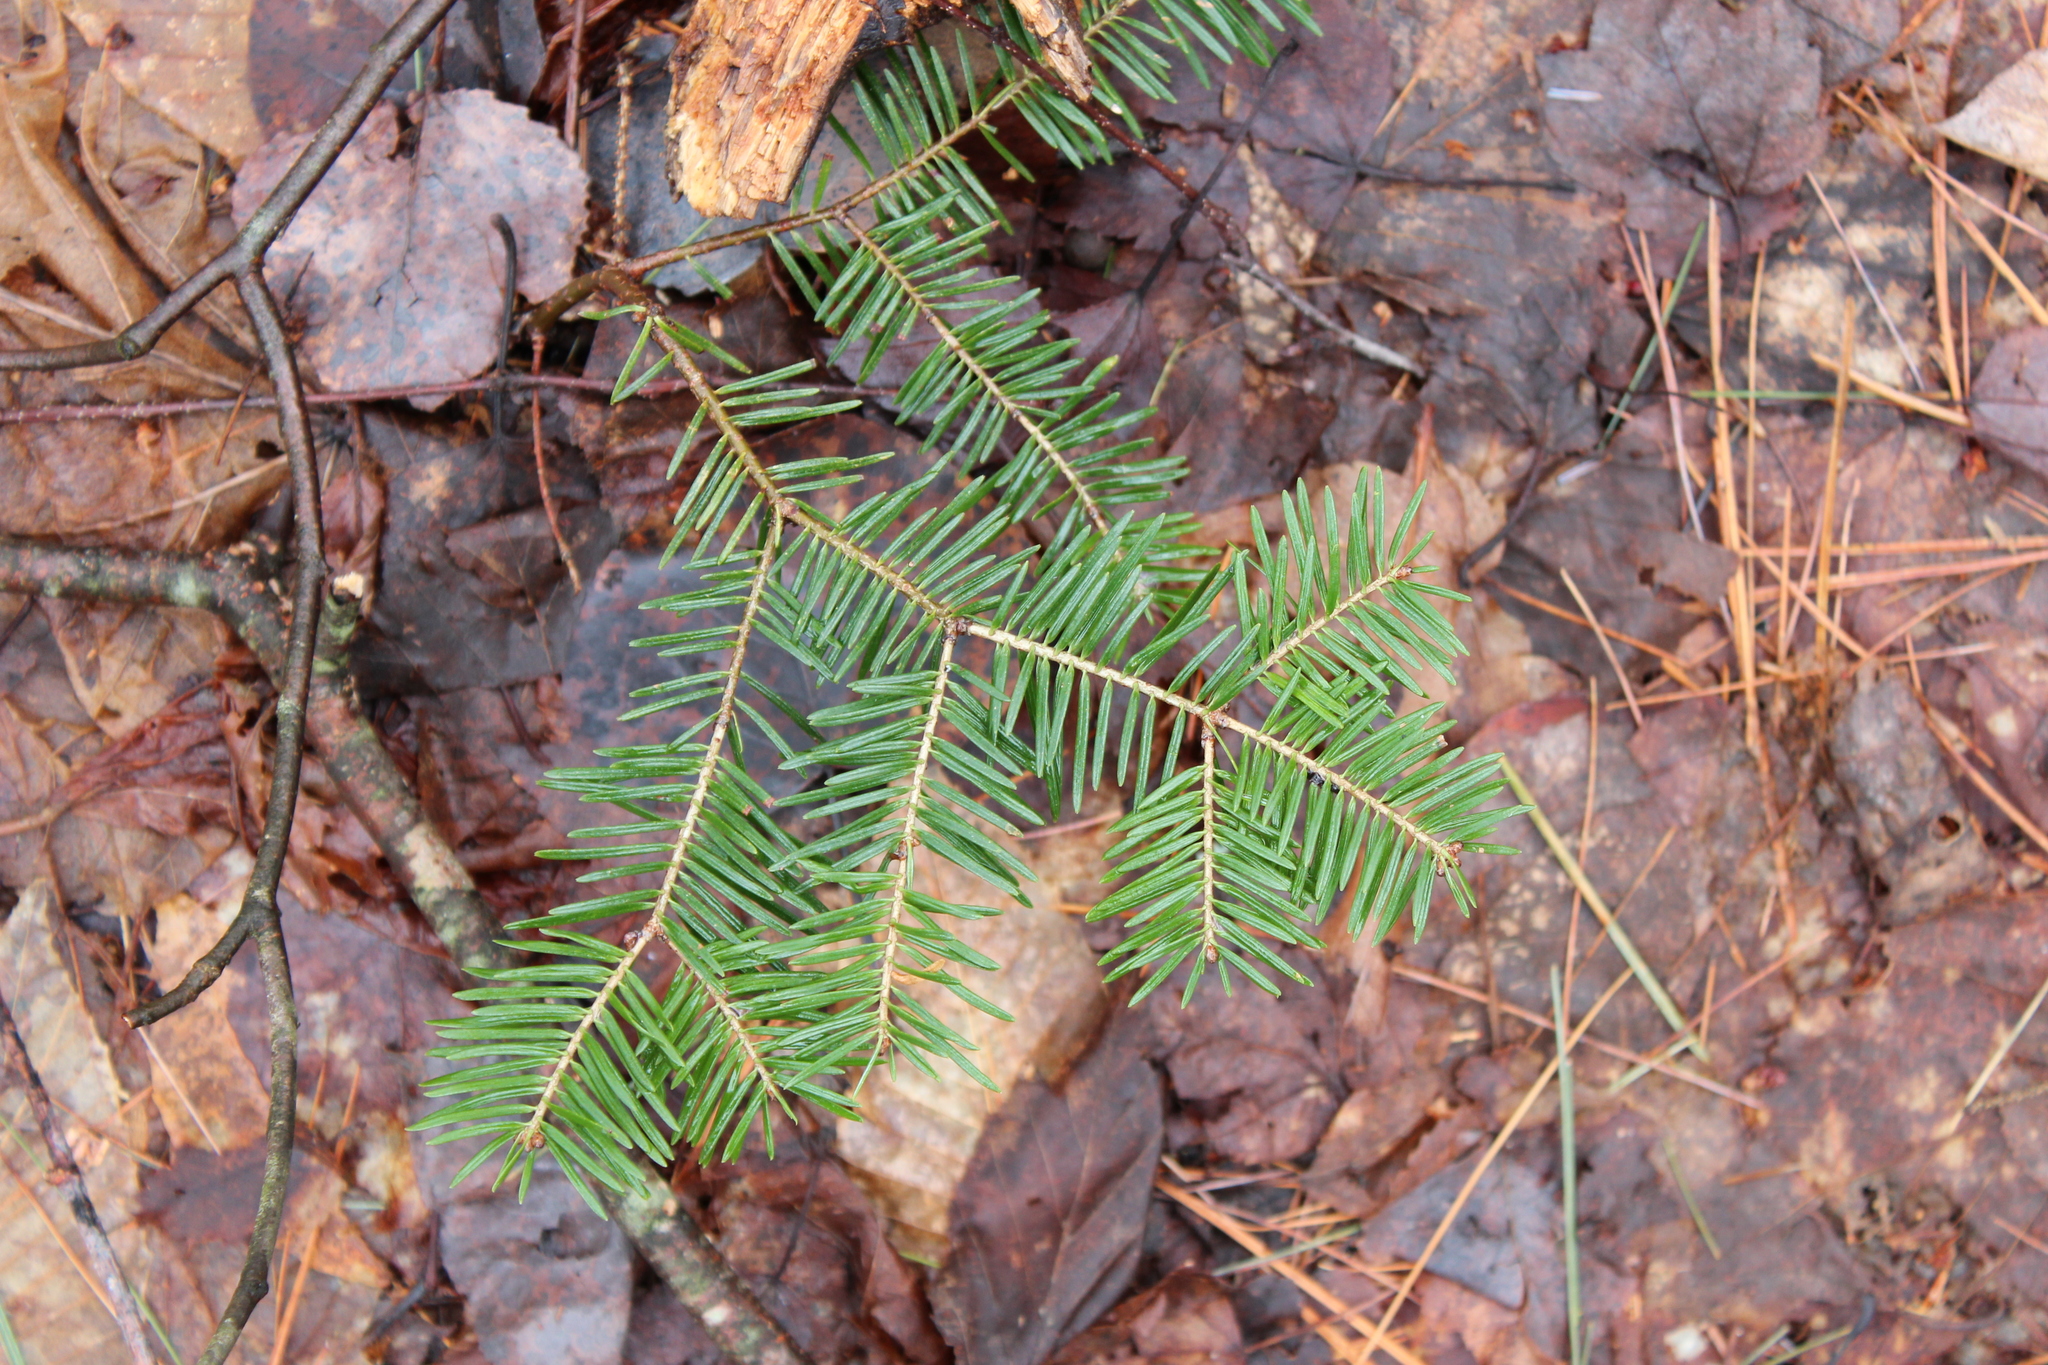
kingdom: Plantae
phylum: Tracheophyta
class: Pinopsida
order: Pinales
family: Pinaceae
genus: Abies
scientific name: Abies balsamea
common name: Balsam fir
